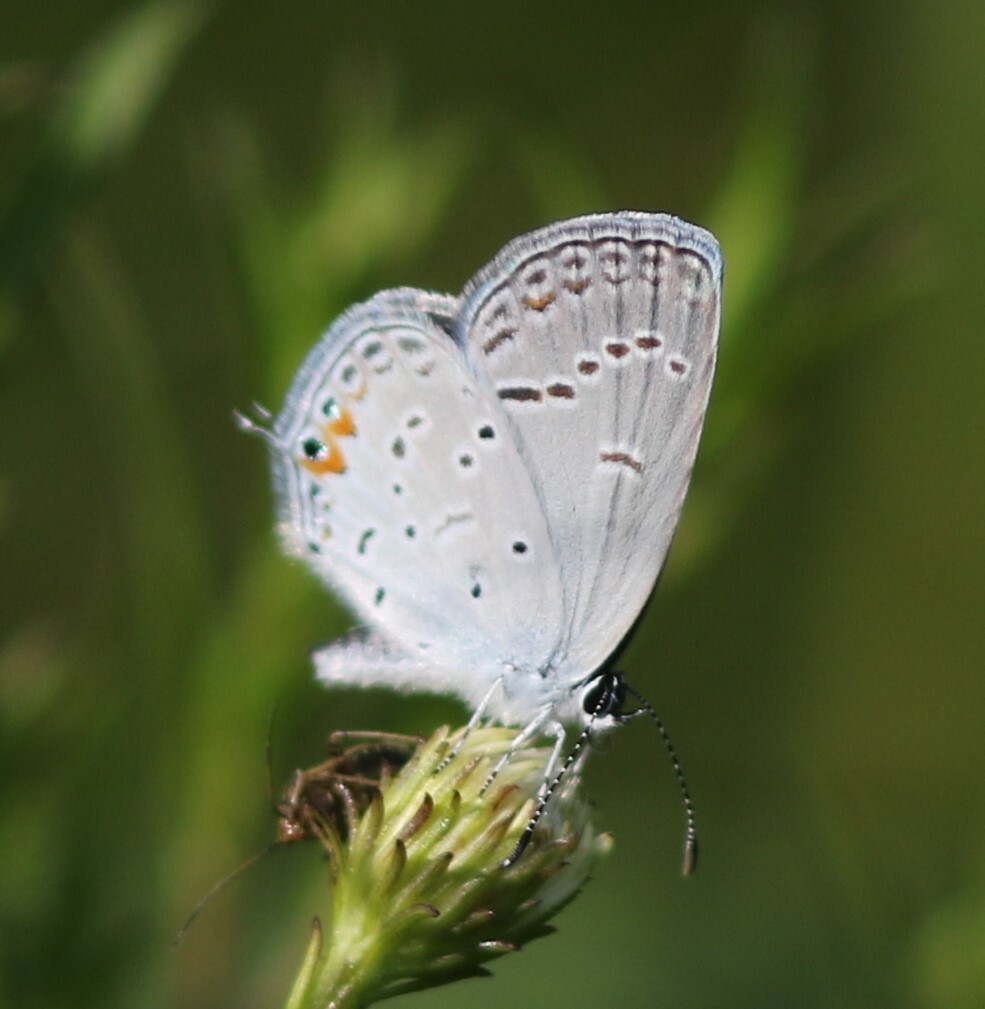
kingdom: Animalia
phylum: Arthropoda
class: Insecta
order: Lepidoptera
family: Lycaenidae
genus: Elkalyce
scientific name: Elkalyce comyntas
